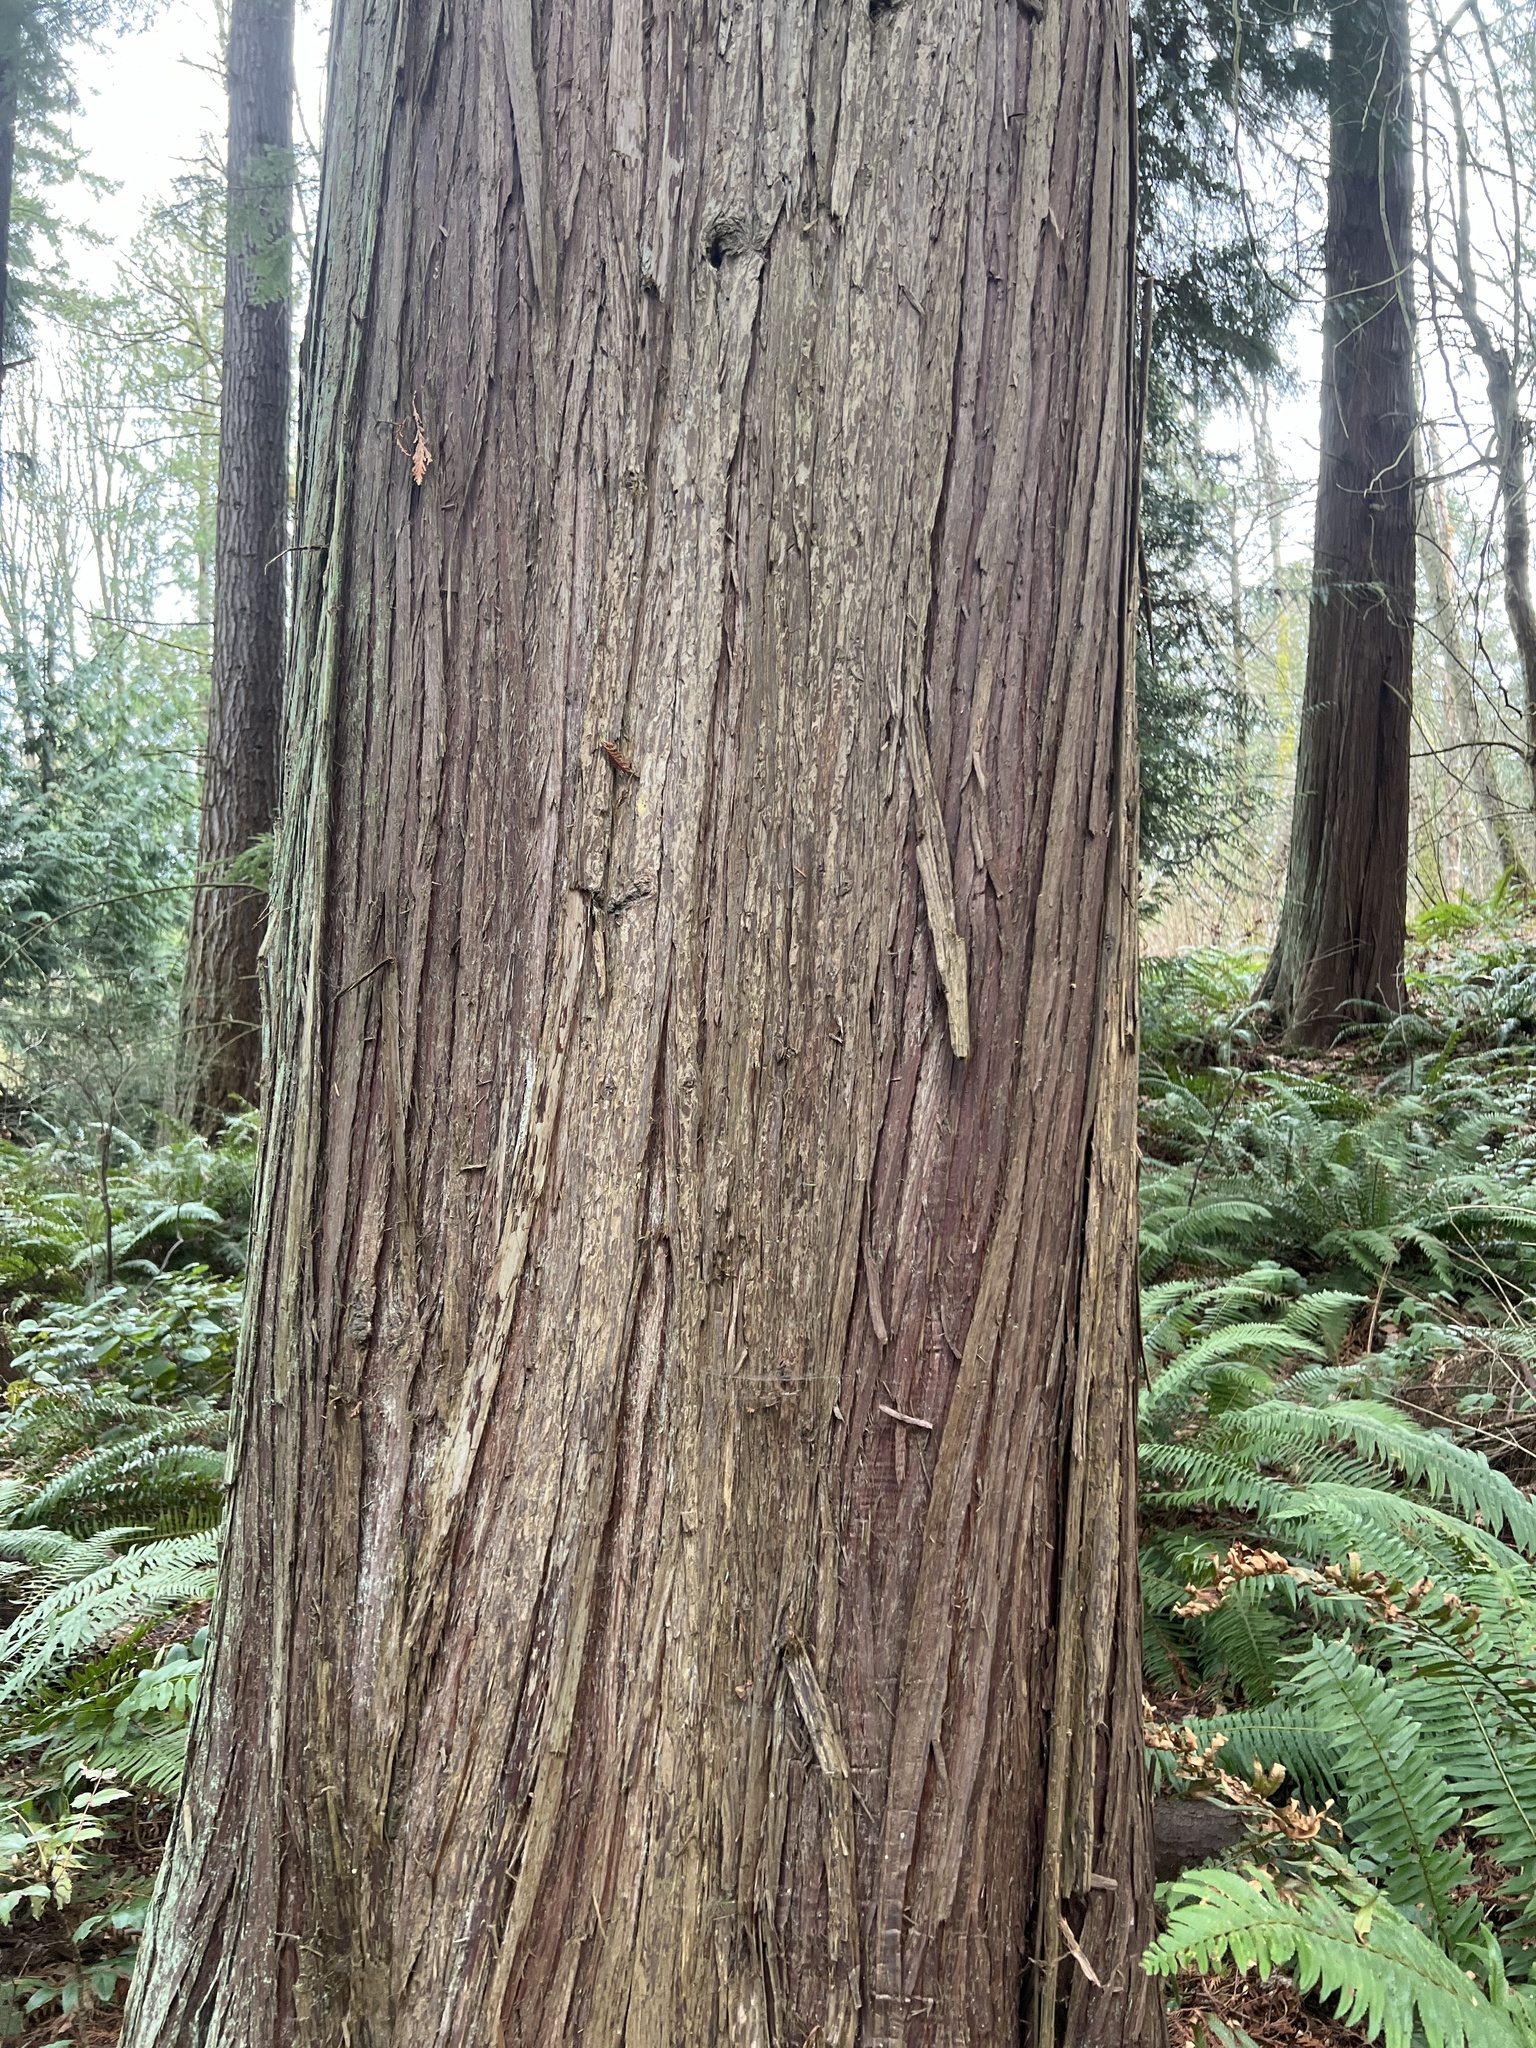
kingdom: Plantae
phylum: Tracheophyta
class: Pinopsida
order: Pinales
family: Cupressaceae
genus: Thuja
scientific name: Thuja plicata
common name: Western red-cedar
